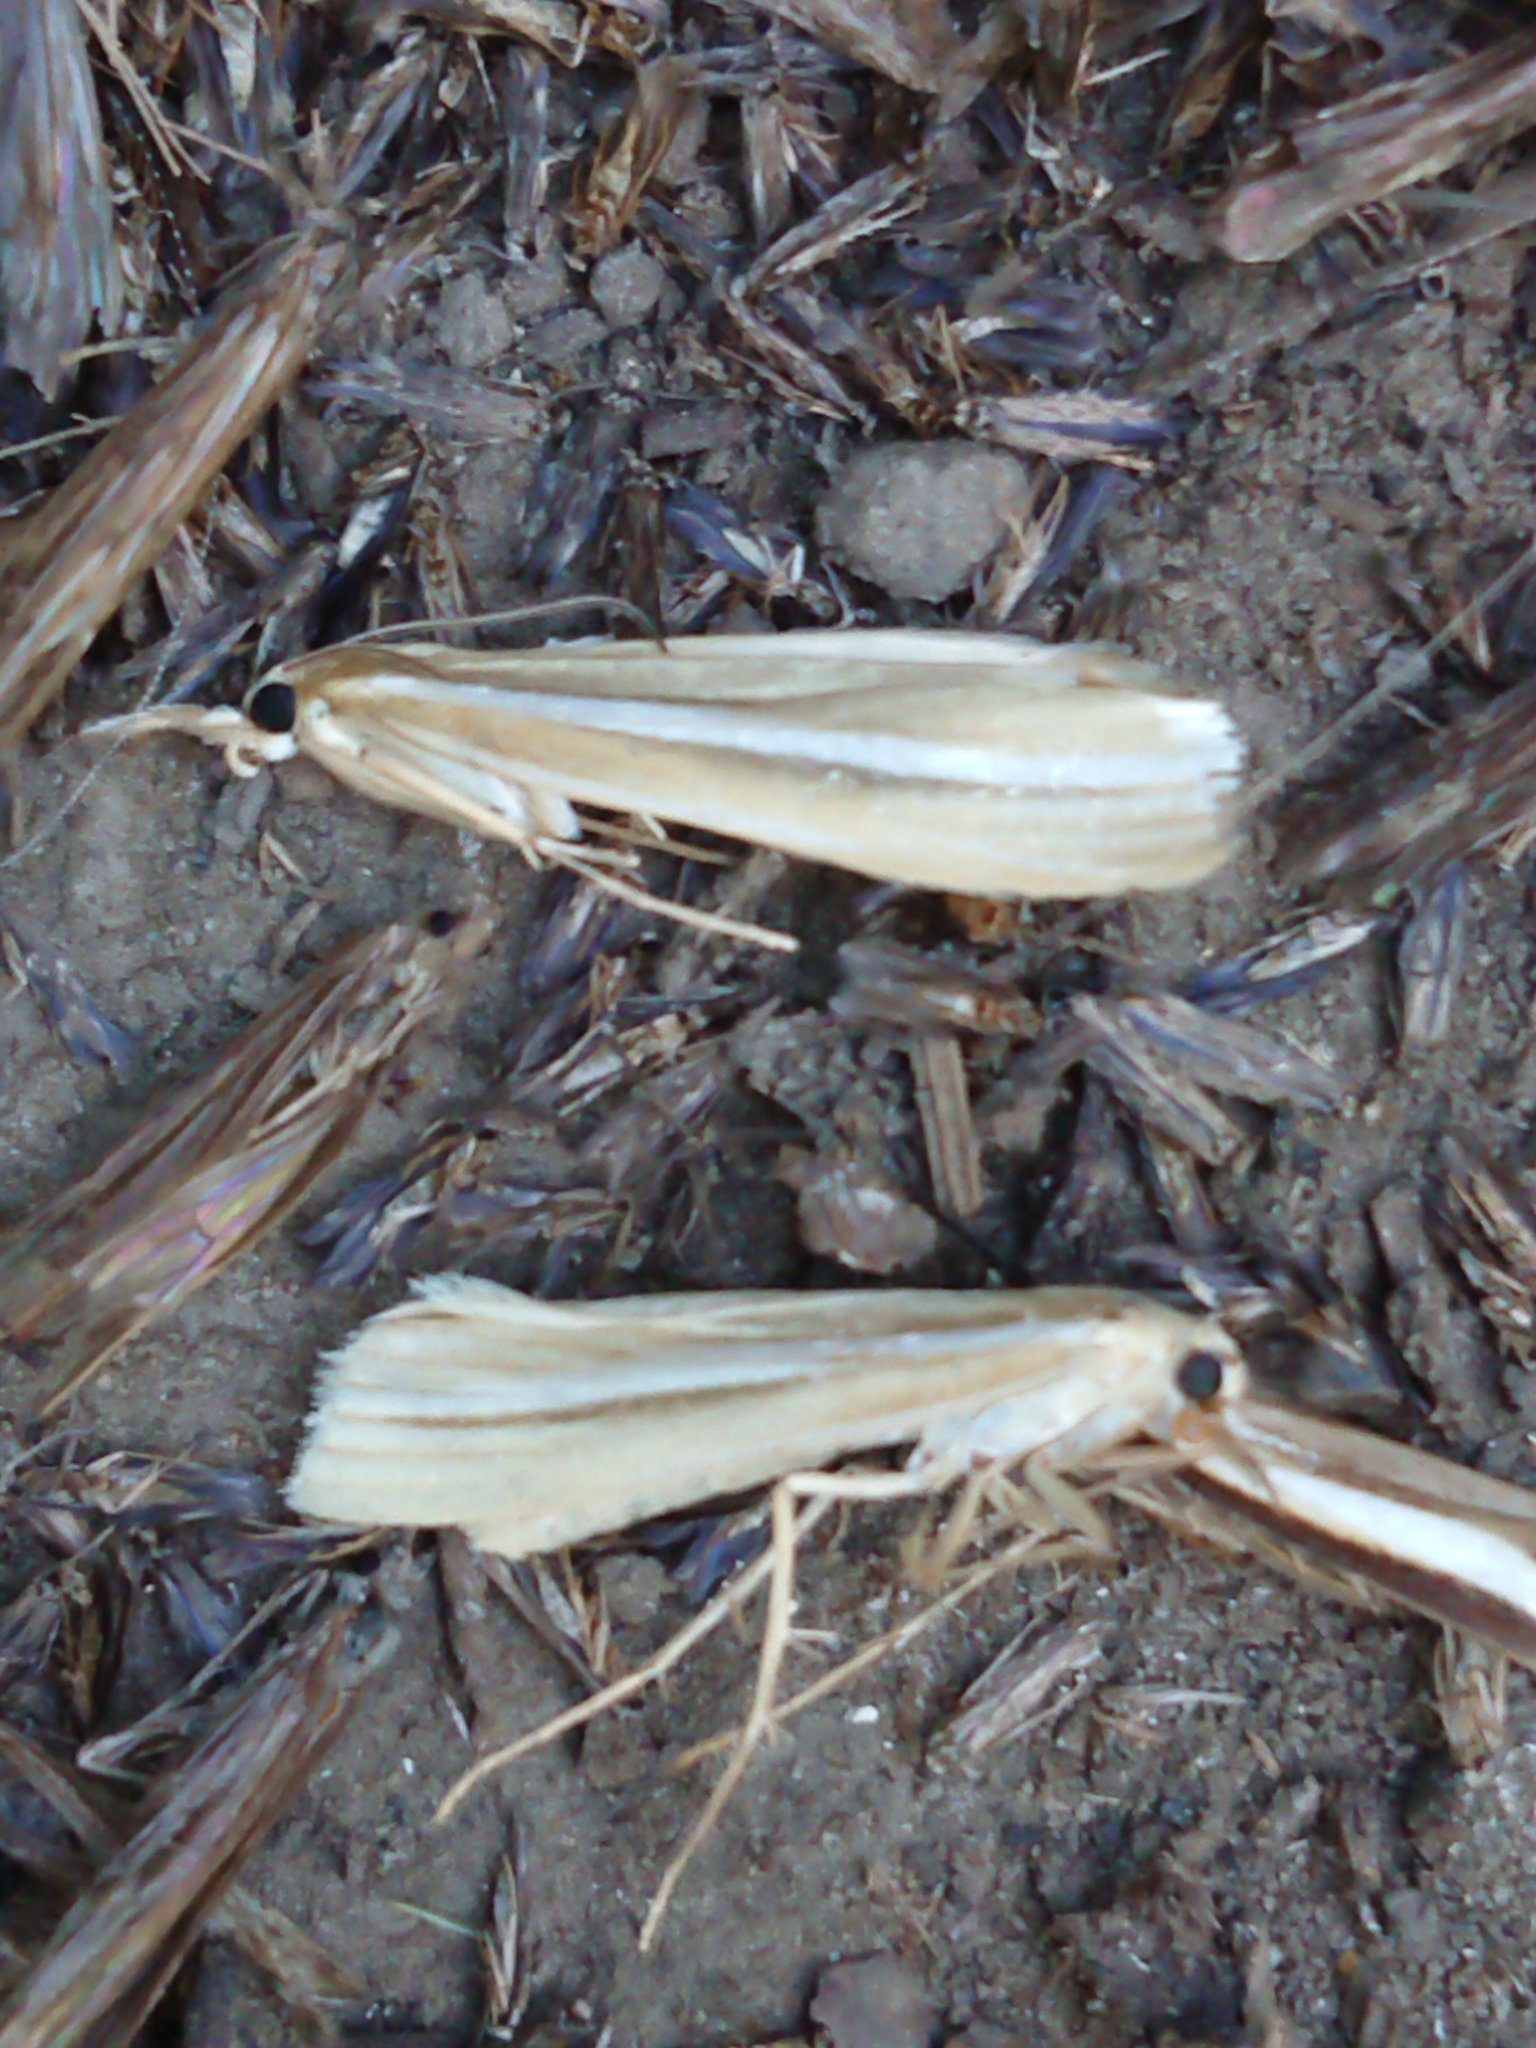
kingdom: Animalia
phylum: Arthropoda
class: Insecta
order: Lepidoptera
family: Crambidae
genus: Orocrambus
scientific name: Orocrambus lewisi
